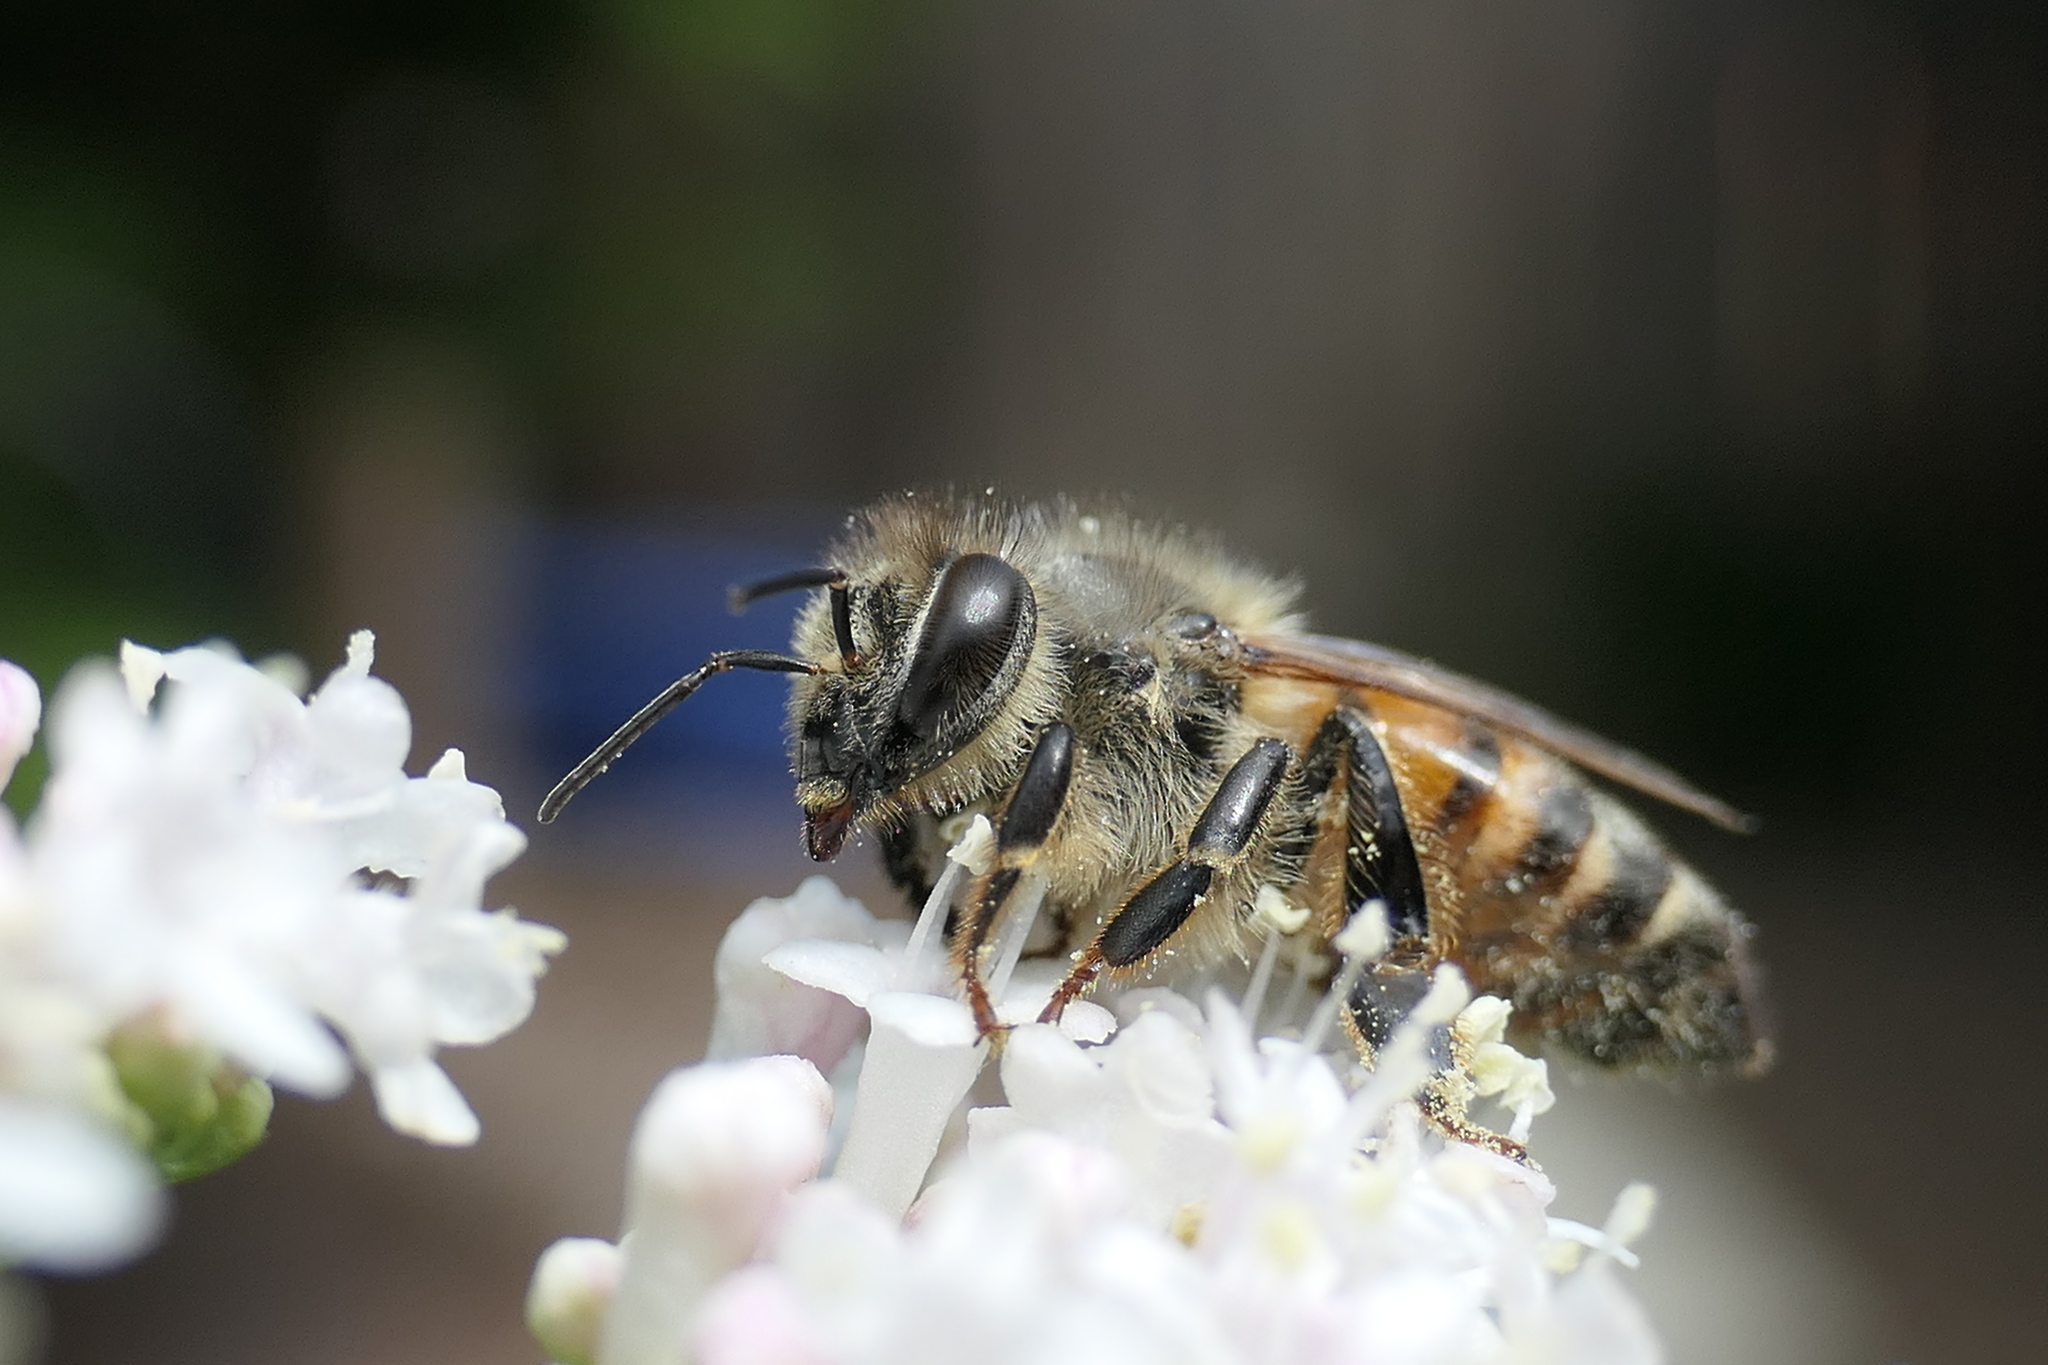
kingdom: Animalia
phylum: Arthropoda
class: Insecta
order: Hymenoptera
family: Apidae
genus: Apis
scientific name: Apis mellifera
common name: Honey bee
